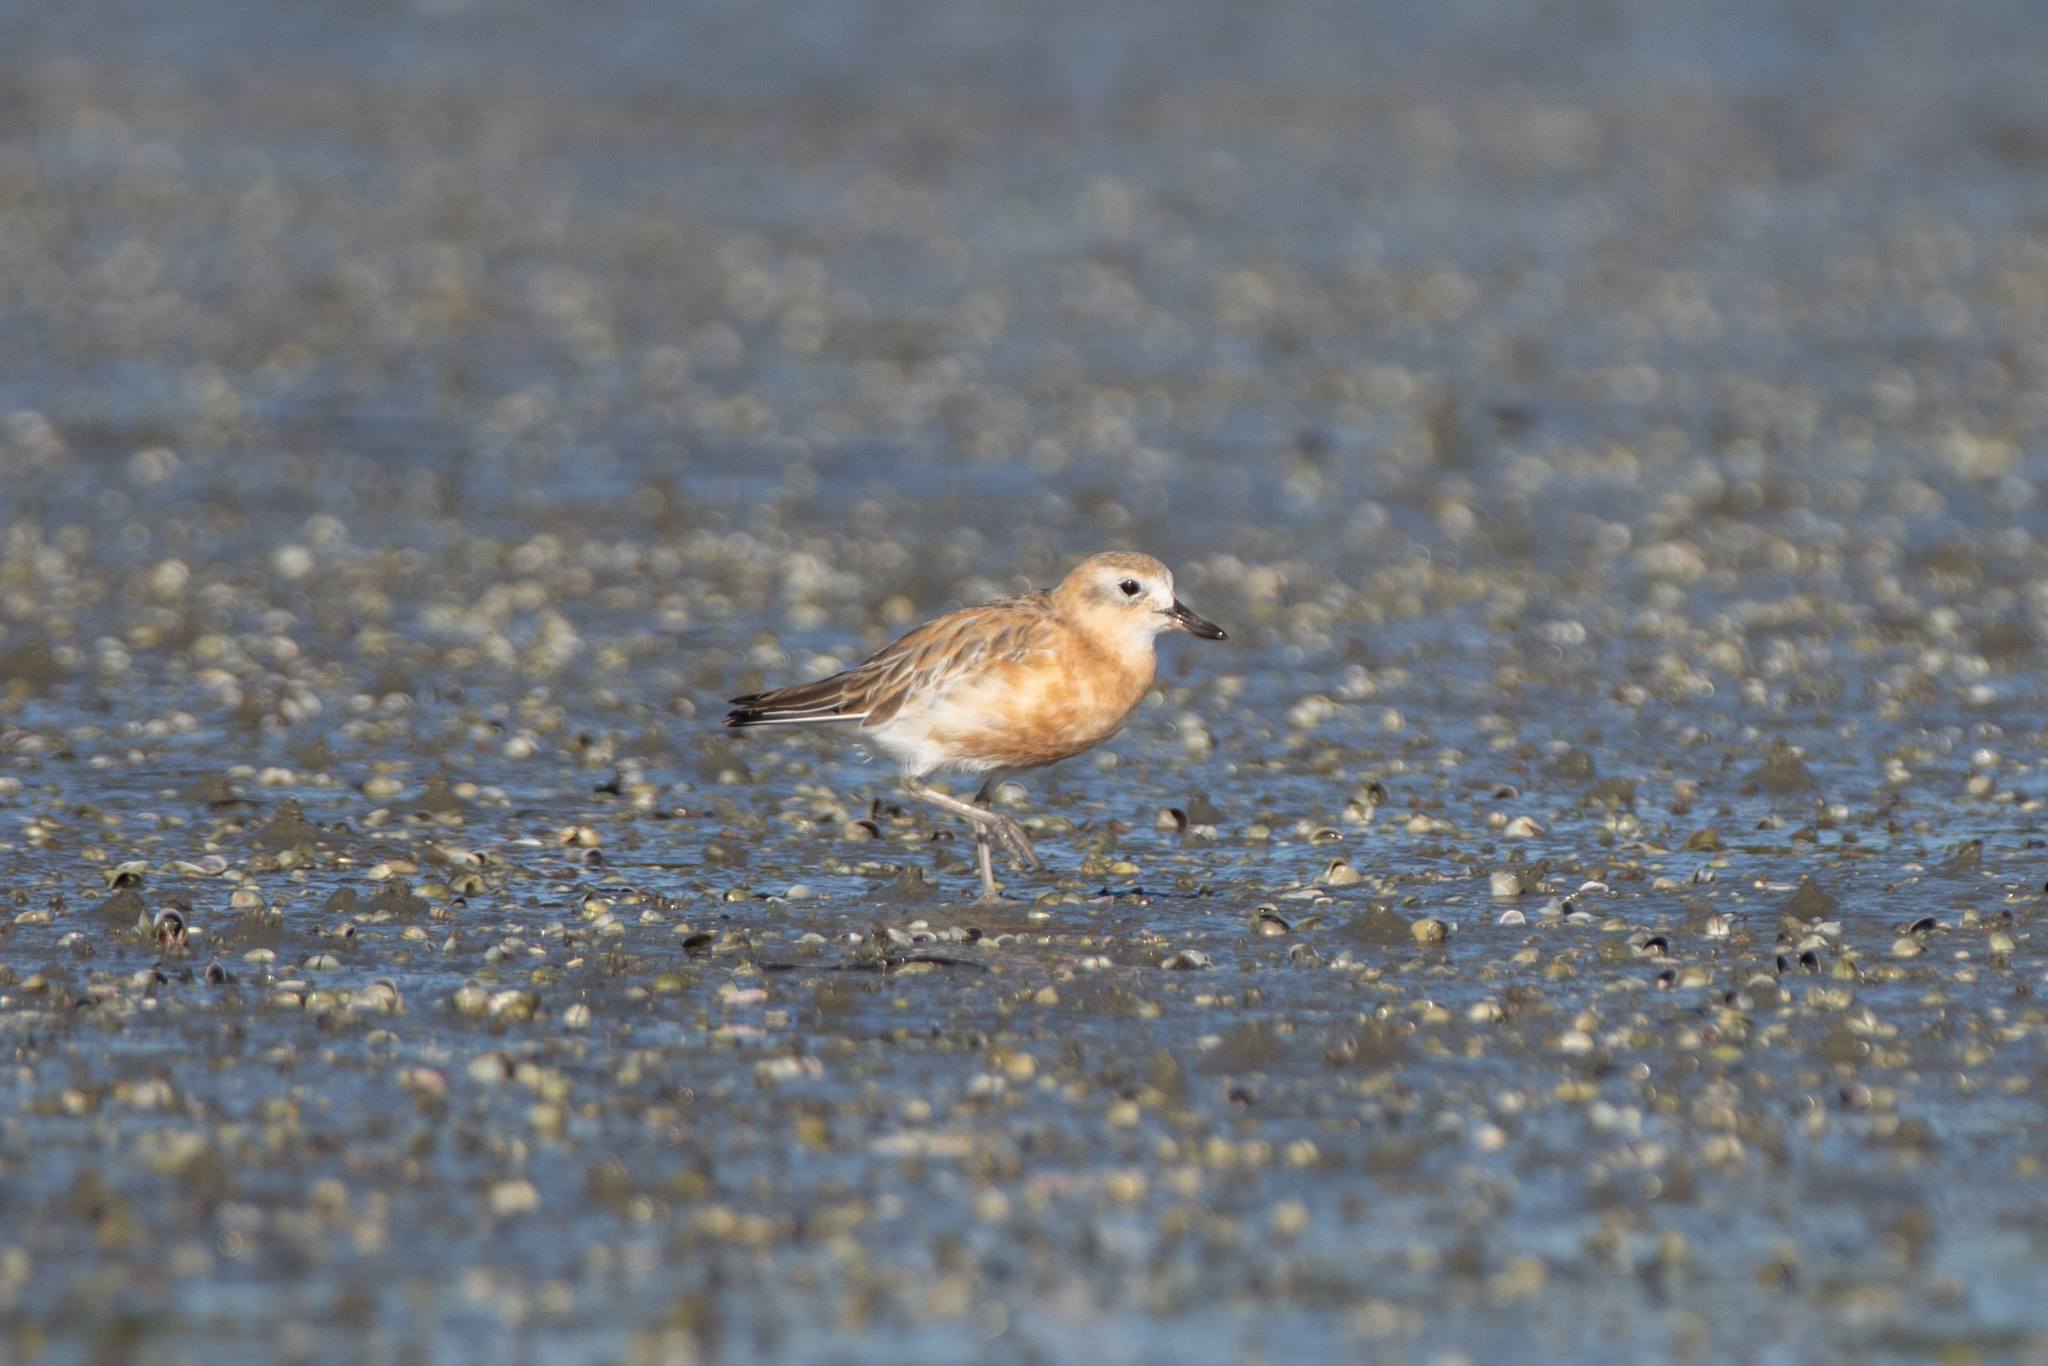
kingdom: Animalia
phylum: Chordata
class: Aves
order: Charadriiformes
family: Charadriidae
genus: Anarhynchus
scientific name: Anarhynchus
